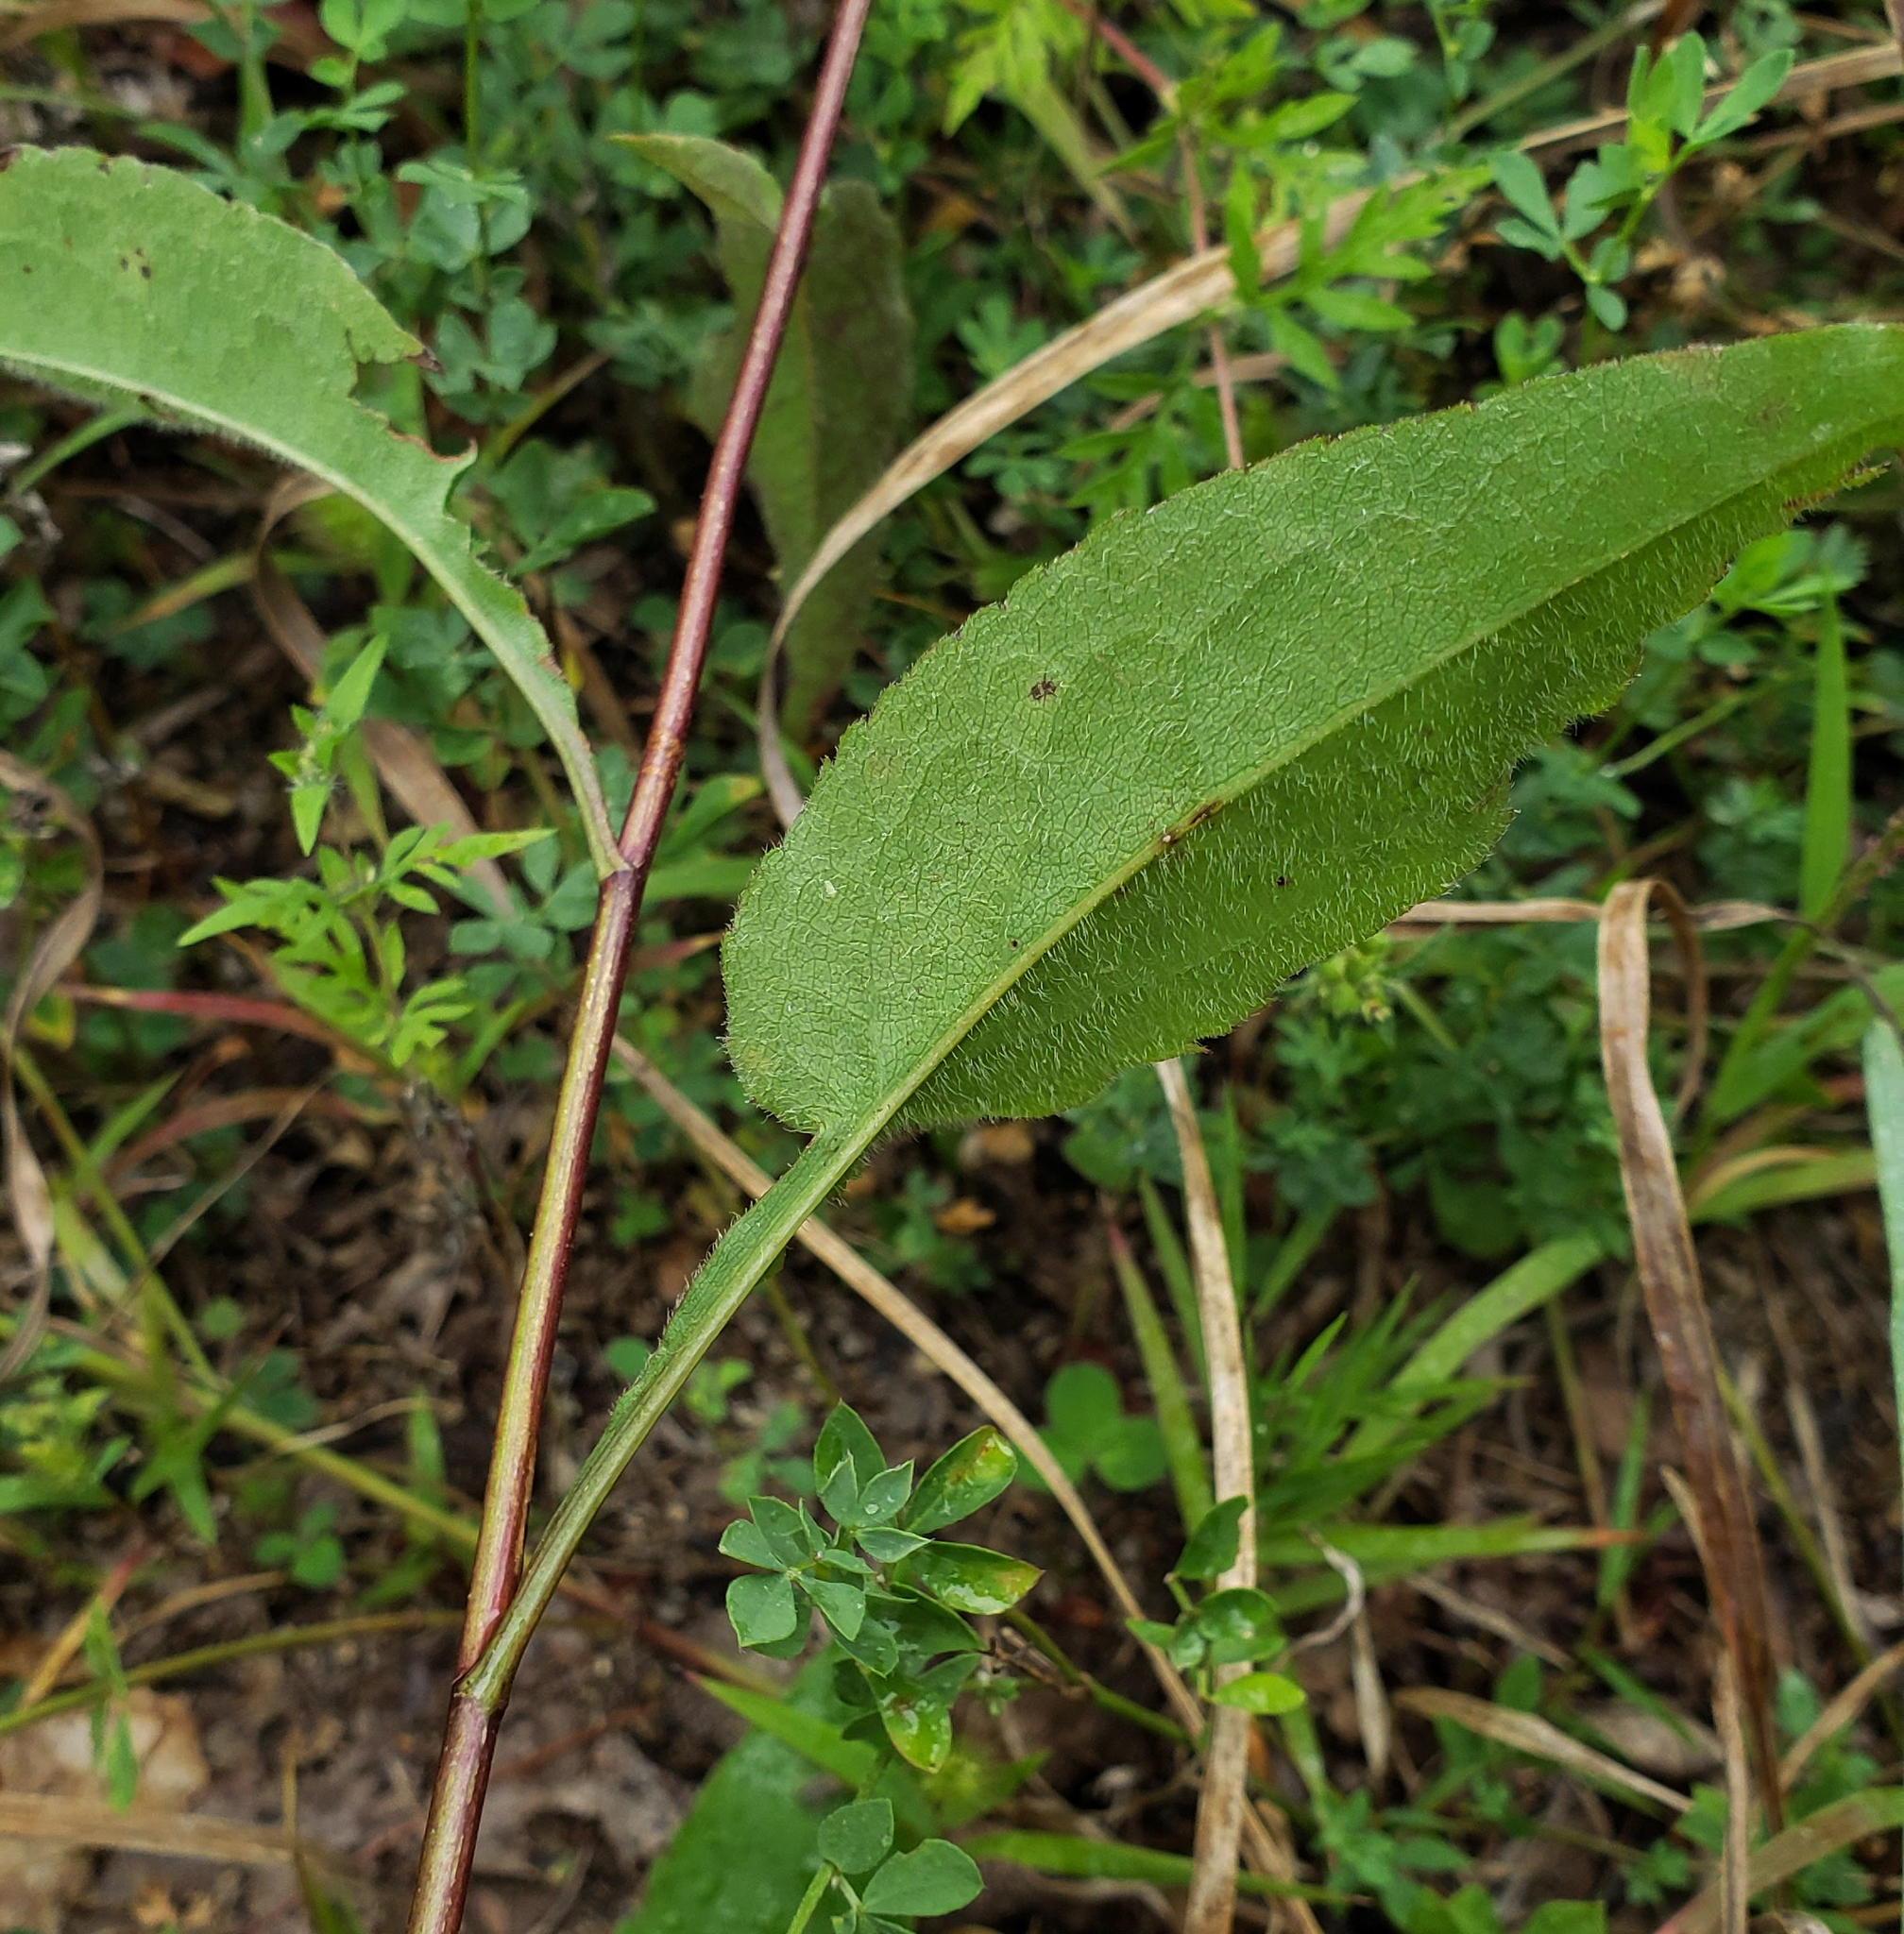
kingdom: Plantae
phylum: Tracheophyta
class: Magnoliopsida
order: Asterales
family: Asteraceae
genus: Symphyotrichum
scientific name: Symphyotrichum urophyllum
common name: Arrow-leaved aster
